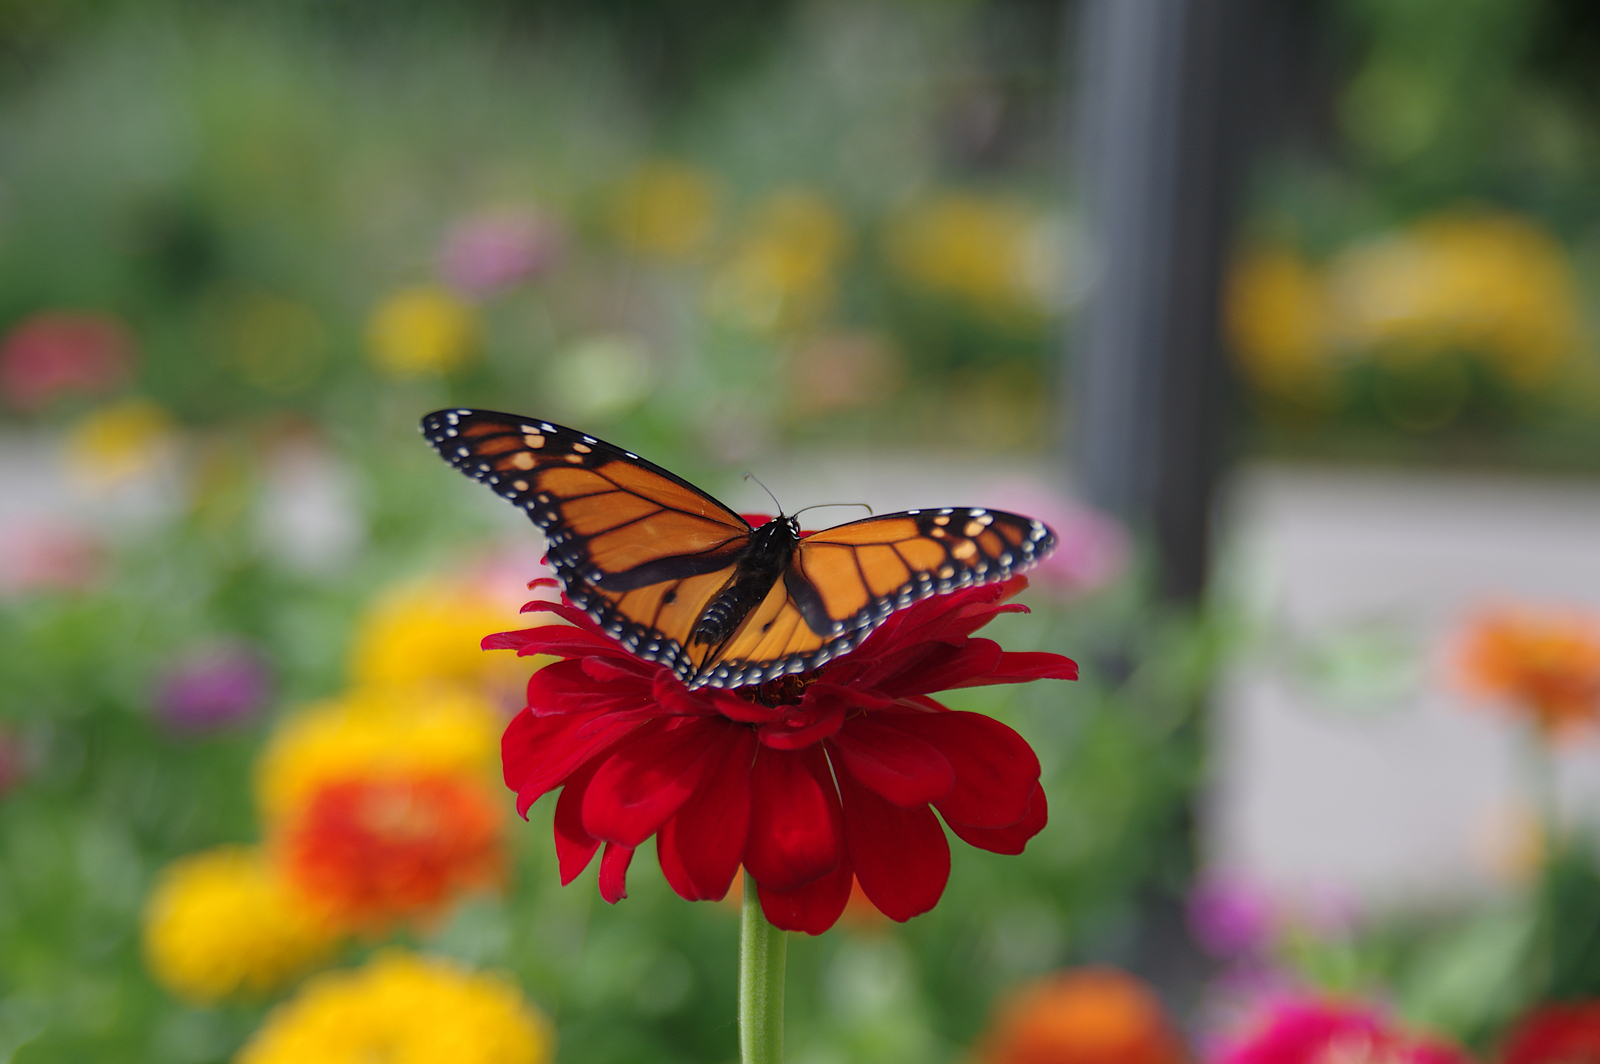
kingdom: Animalia
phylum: Arthropoda
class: Insecta
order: Lepidoptera
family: Nymphalidae
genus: Danaus
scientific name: Danaus plexippus
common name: Monarch
